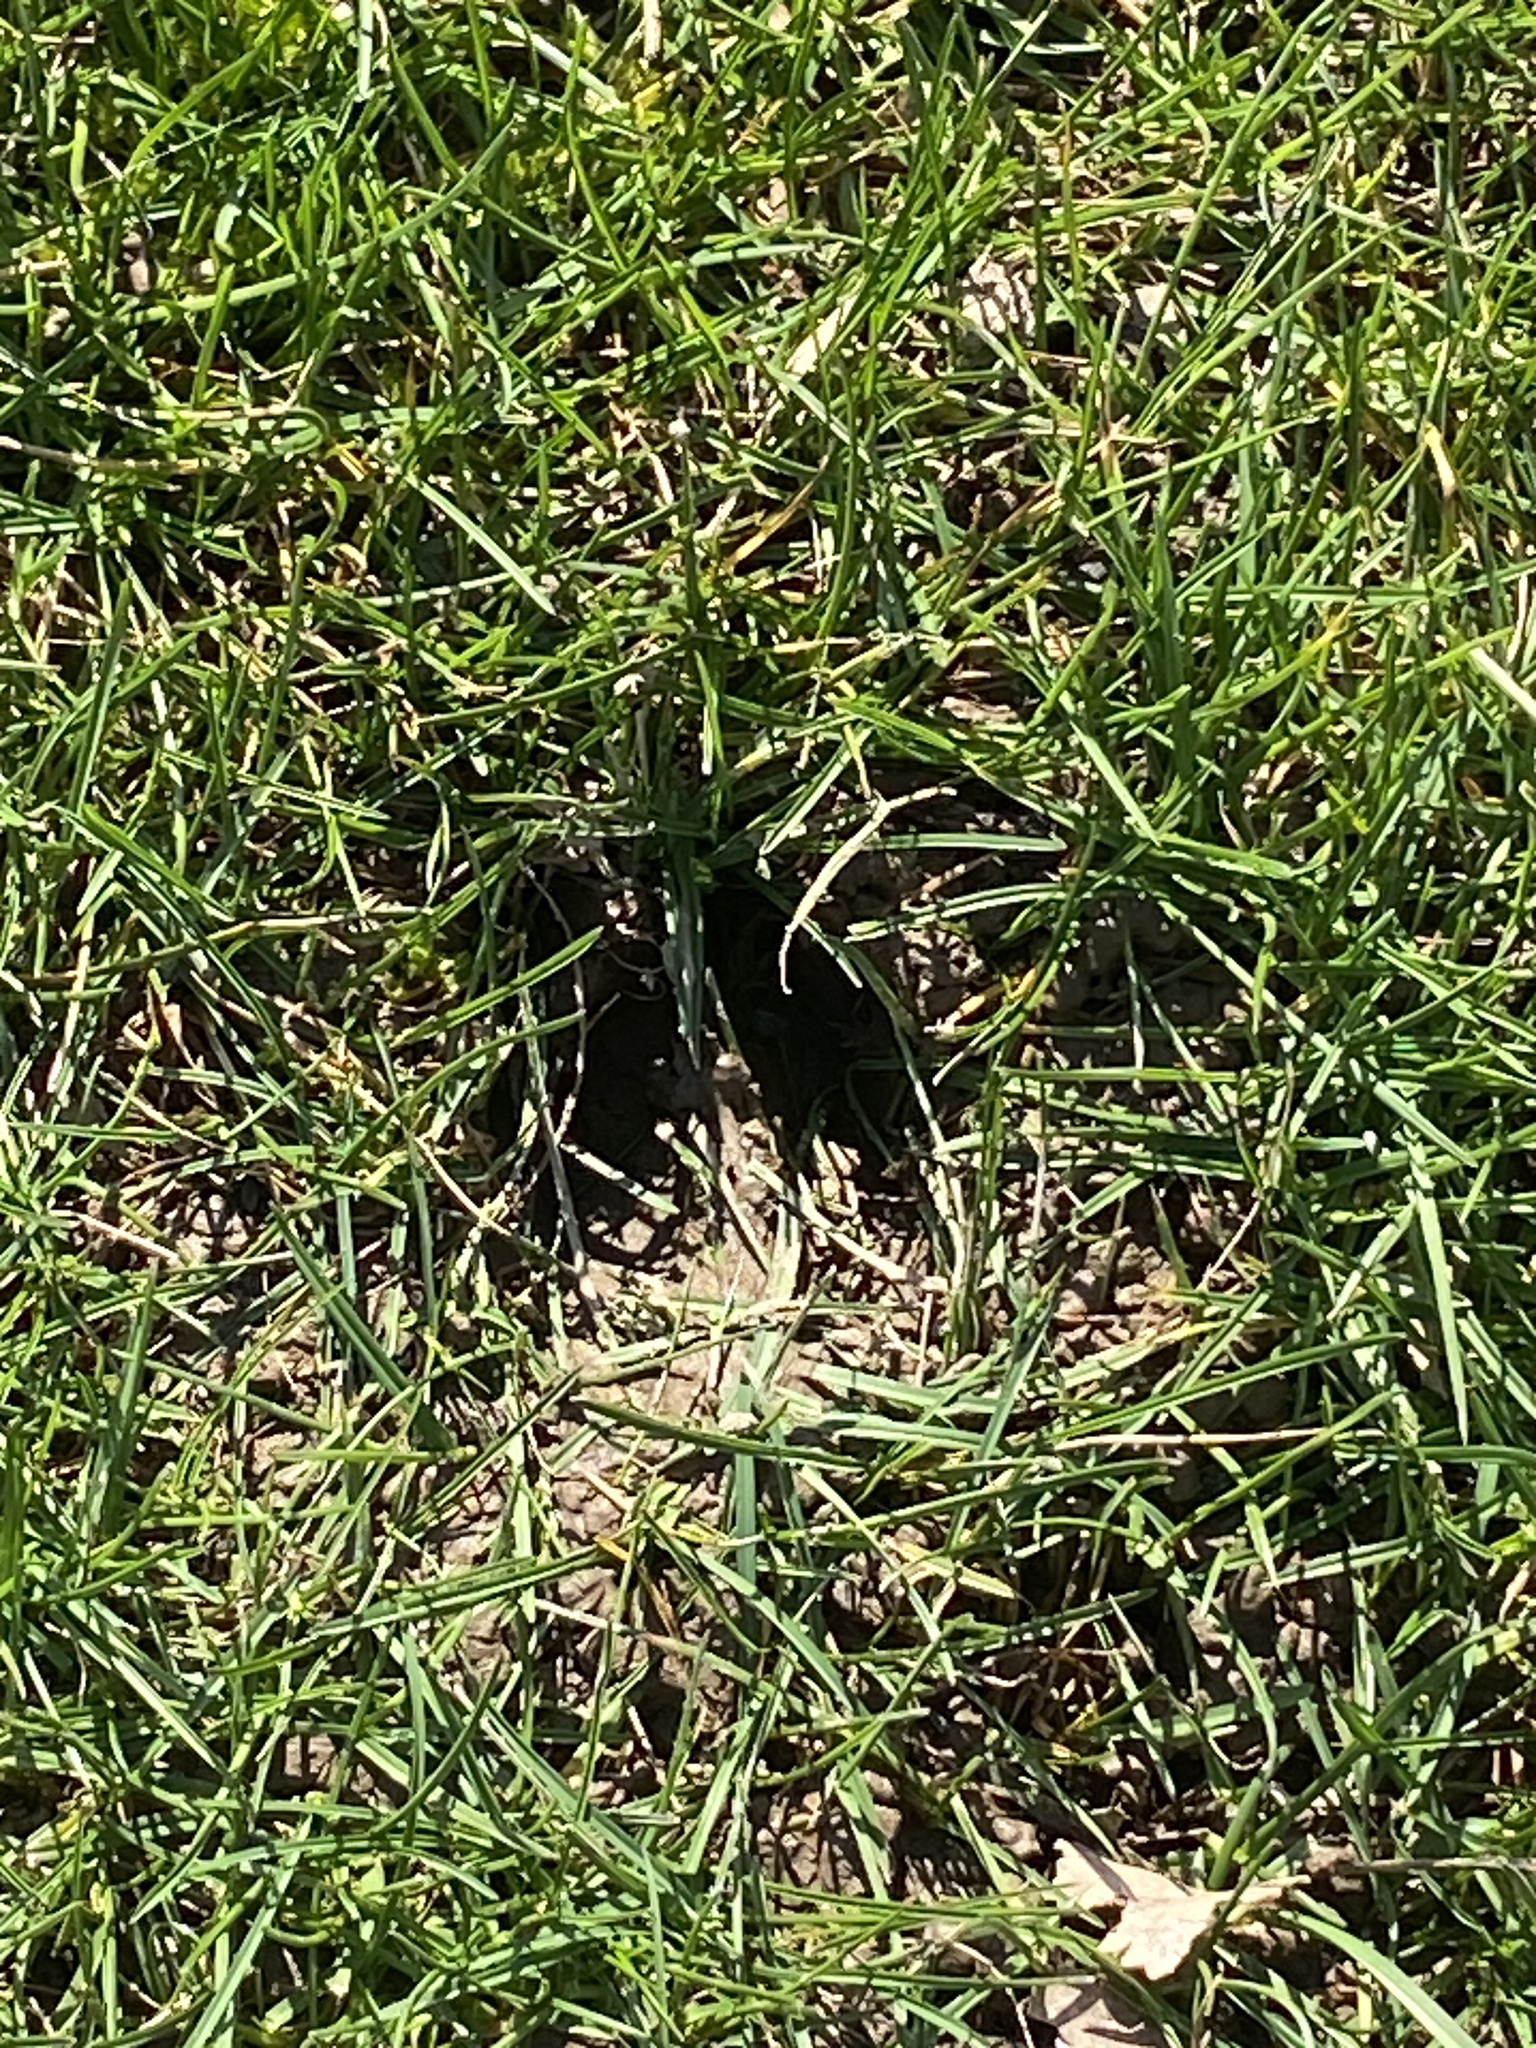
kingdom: Animalia
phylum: Chordata
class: Mammalia
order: Artiodactyla
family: Cervidae
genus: Odocoileus
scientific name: Odocoileus virginianus
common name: White-tailed deer
